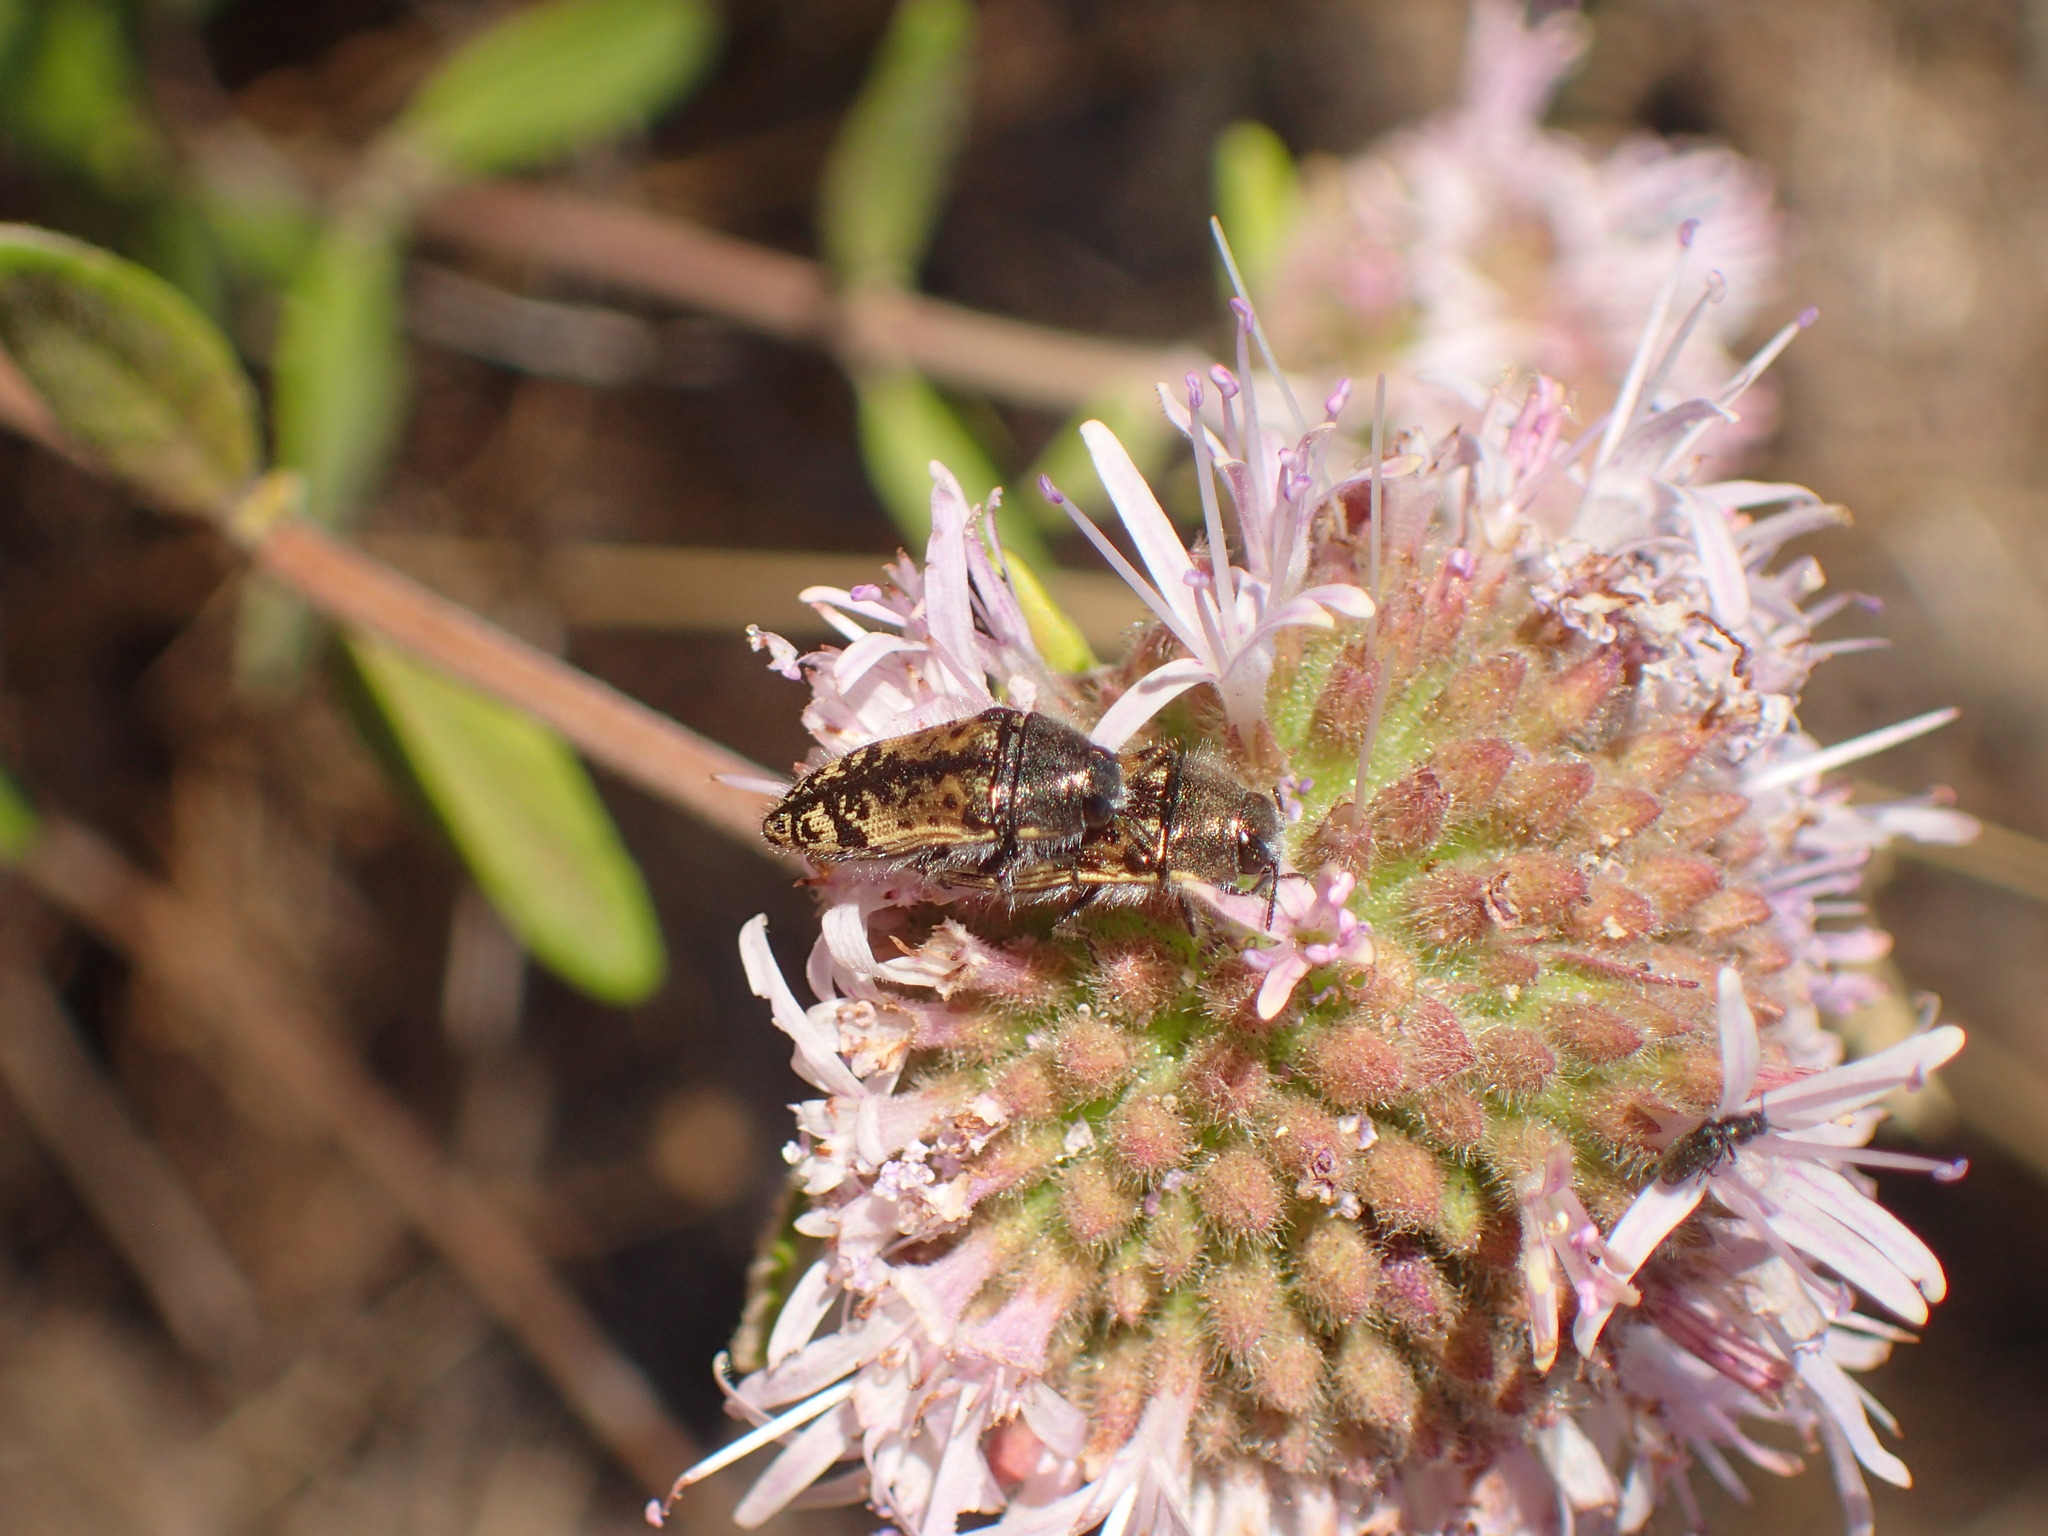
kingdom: Animalia
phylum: Arthropoda
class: Insecta
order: Coleoptera
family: Buprestidae
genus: Acmaeodera
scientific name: Acmaeodera hepburnii
